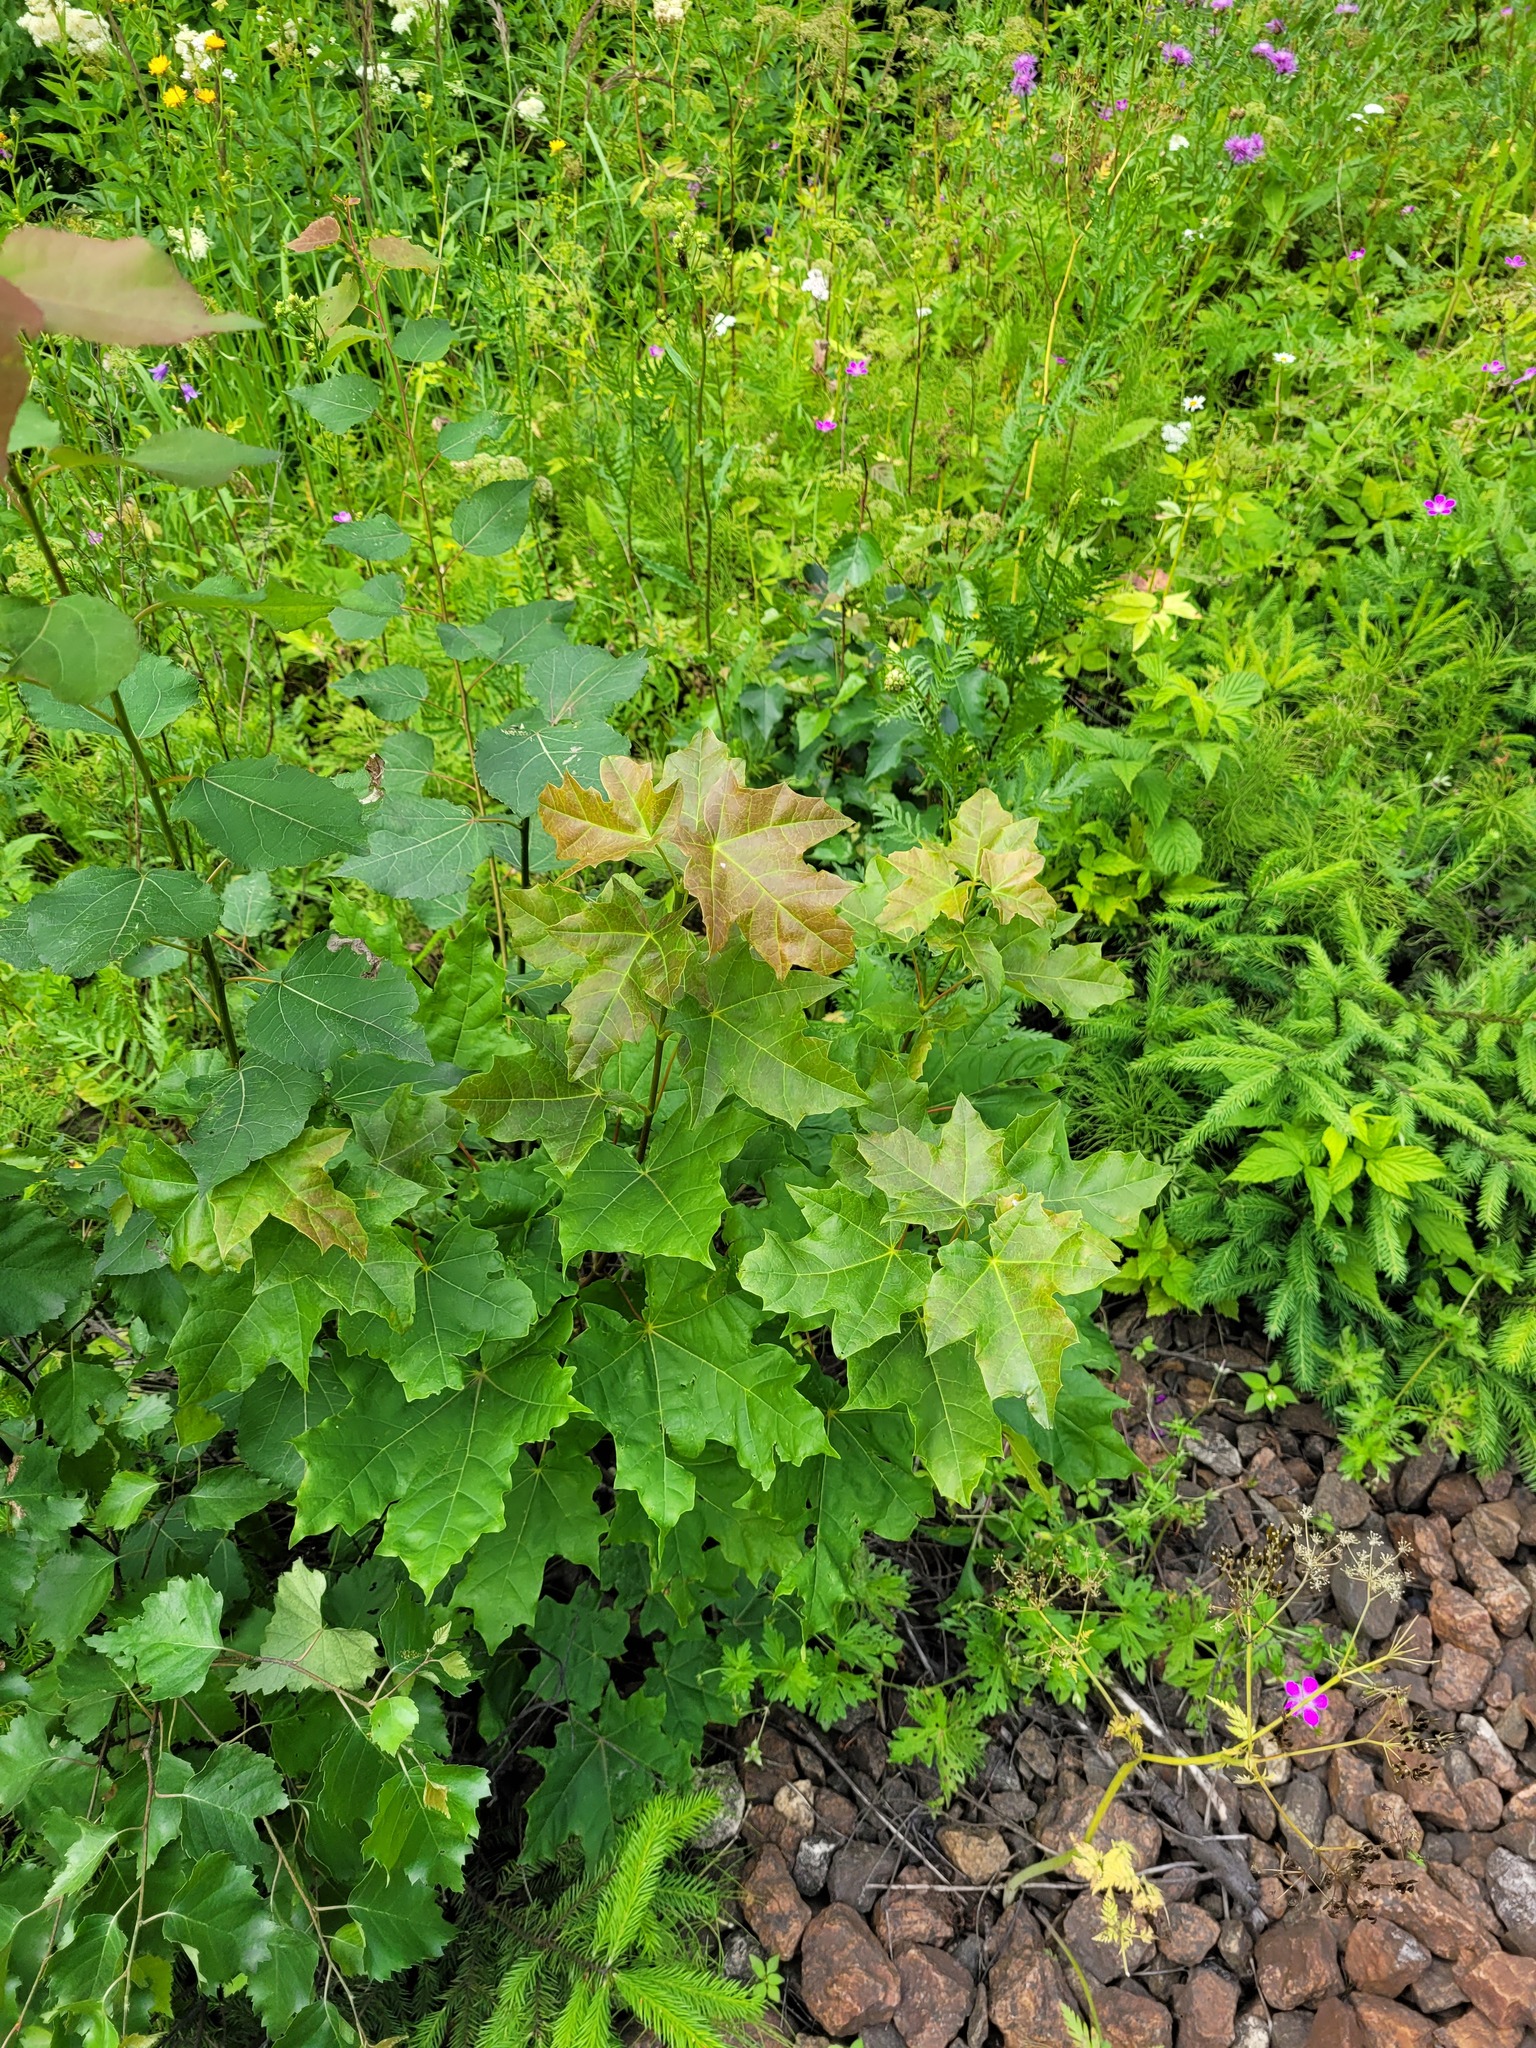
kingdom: Plantae
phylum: Tracheophyta
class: Magnoliopsida
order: Sapindales
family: Sapindaceae
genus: Acer
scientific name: Acer platanoides
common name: Norway maple
